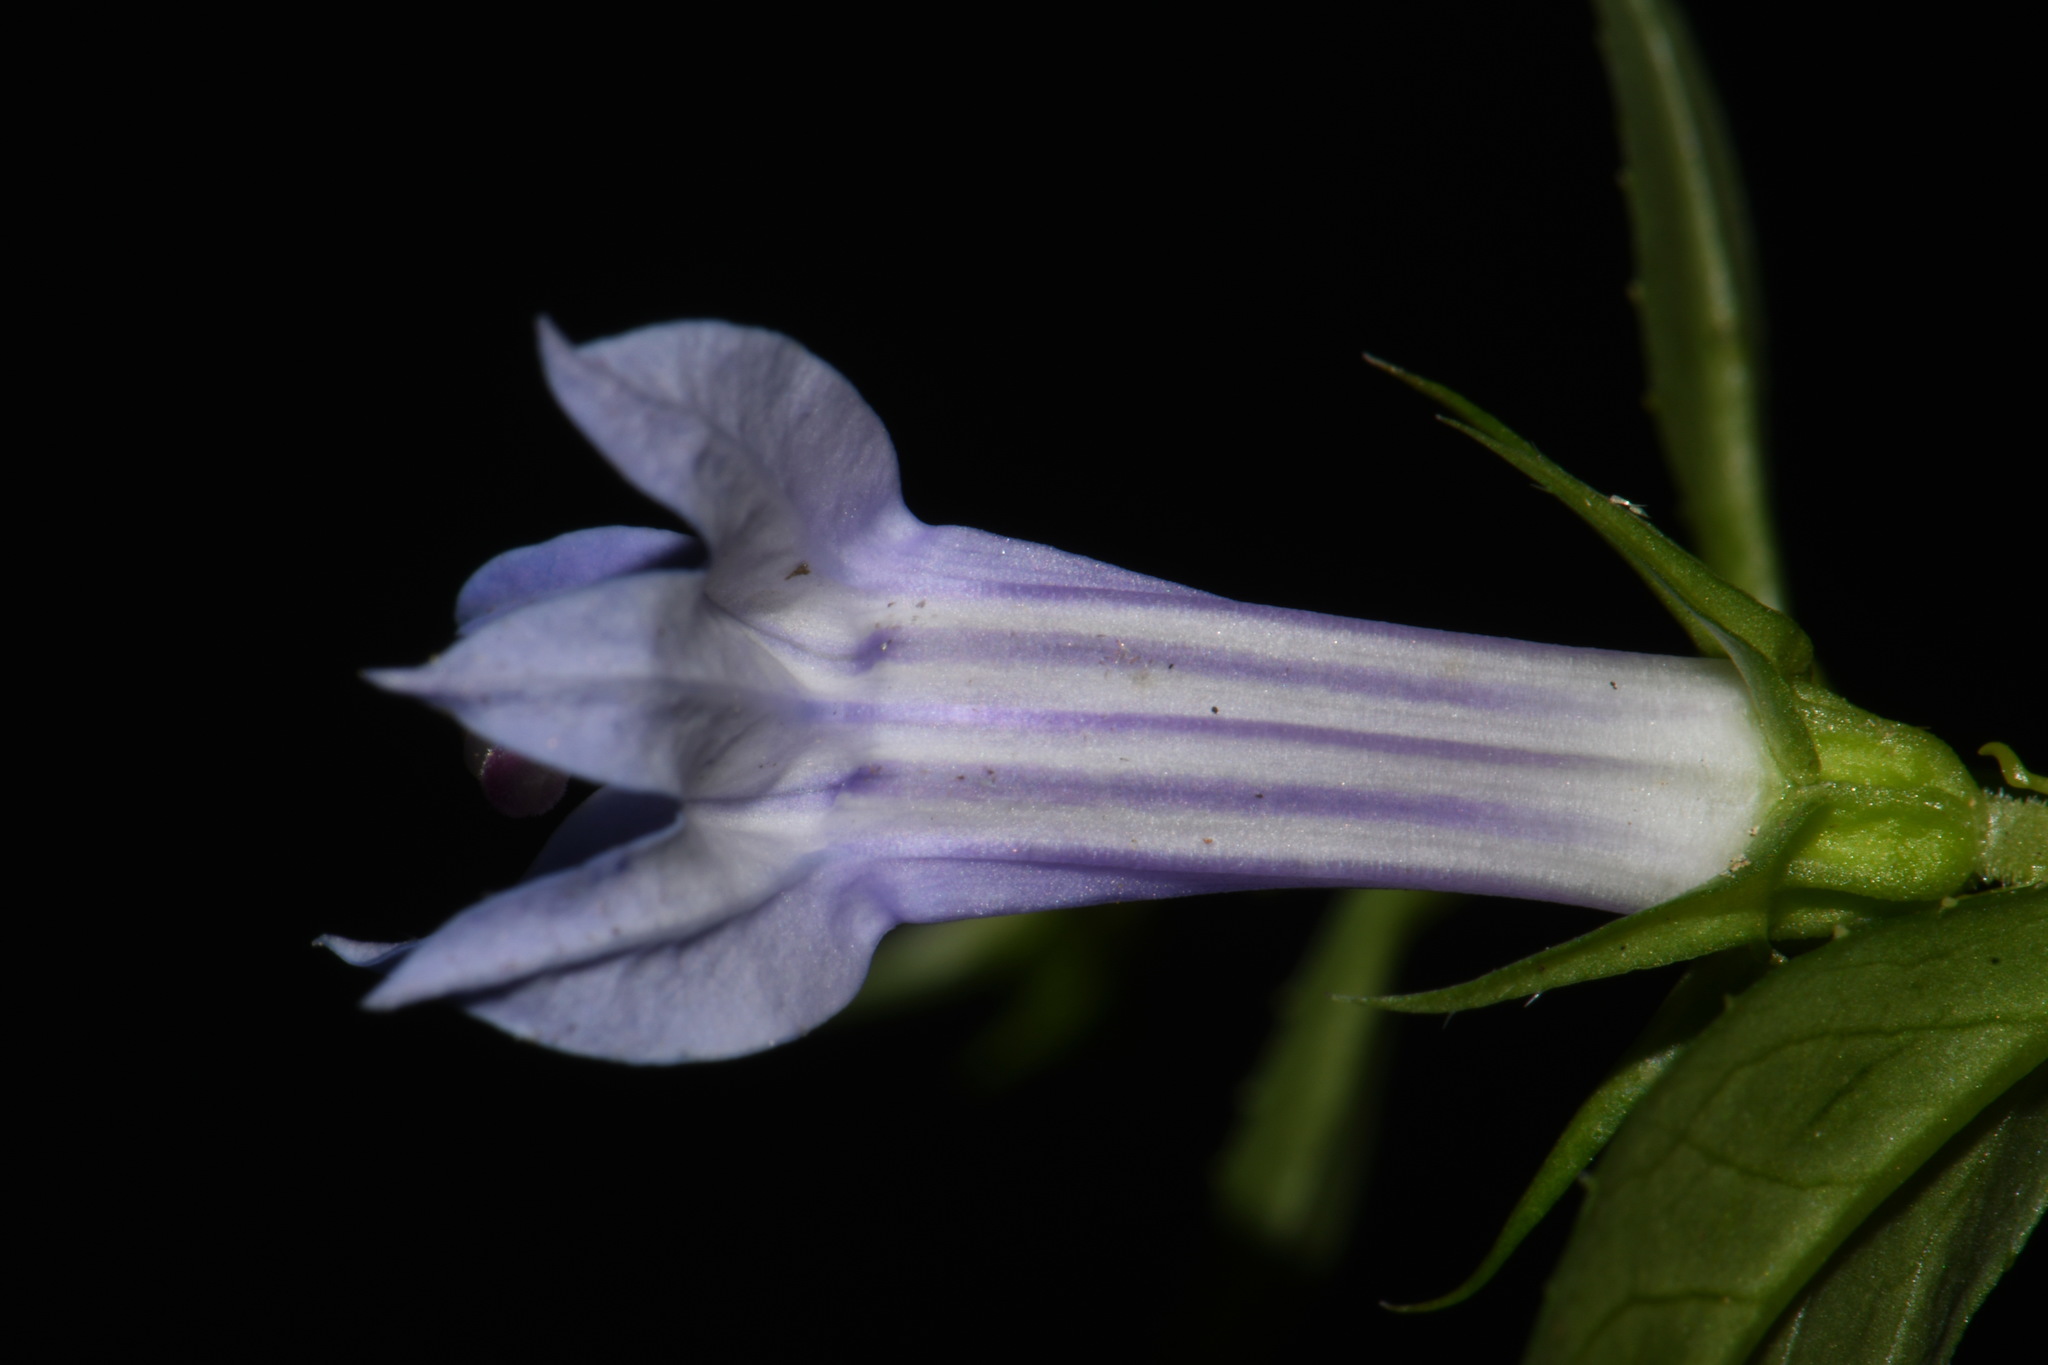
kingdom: Plantae
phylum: Tracheophyta
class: Magnoliopsida
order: Asterales
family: Campanulaceae
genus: Lobelia
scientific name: Lobelia siphilitica
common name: Great lobelia
